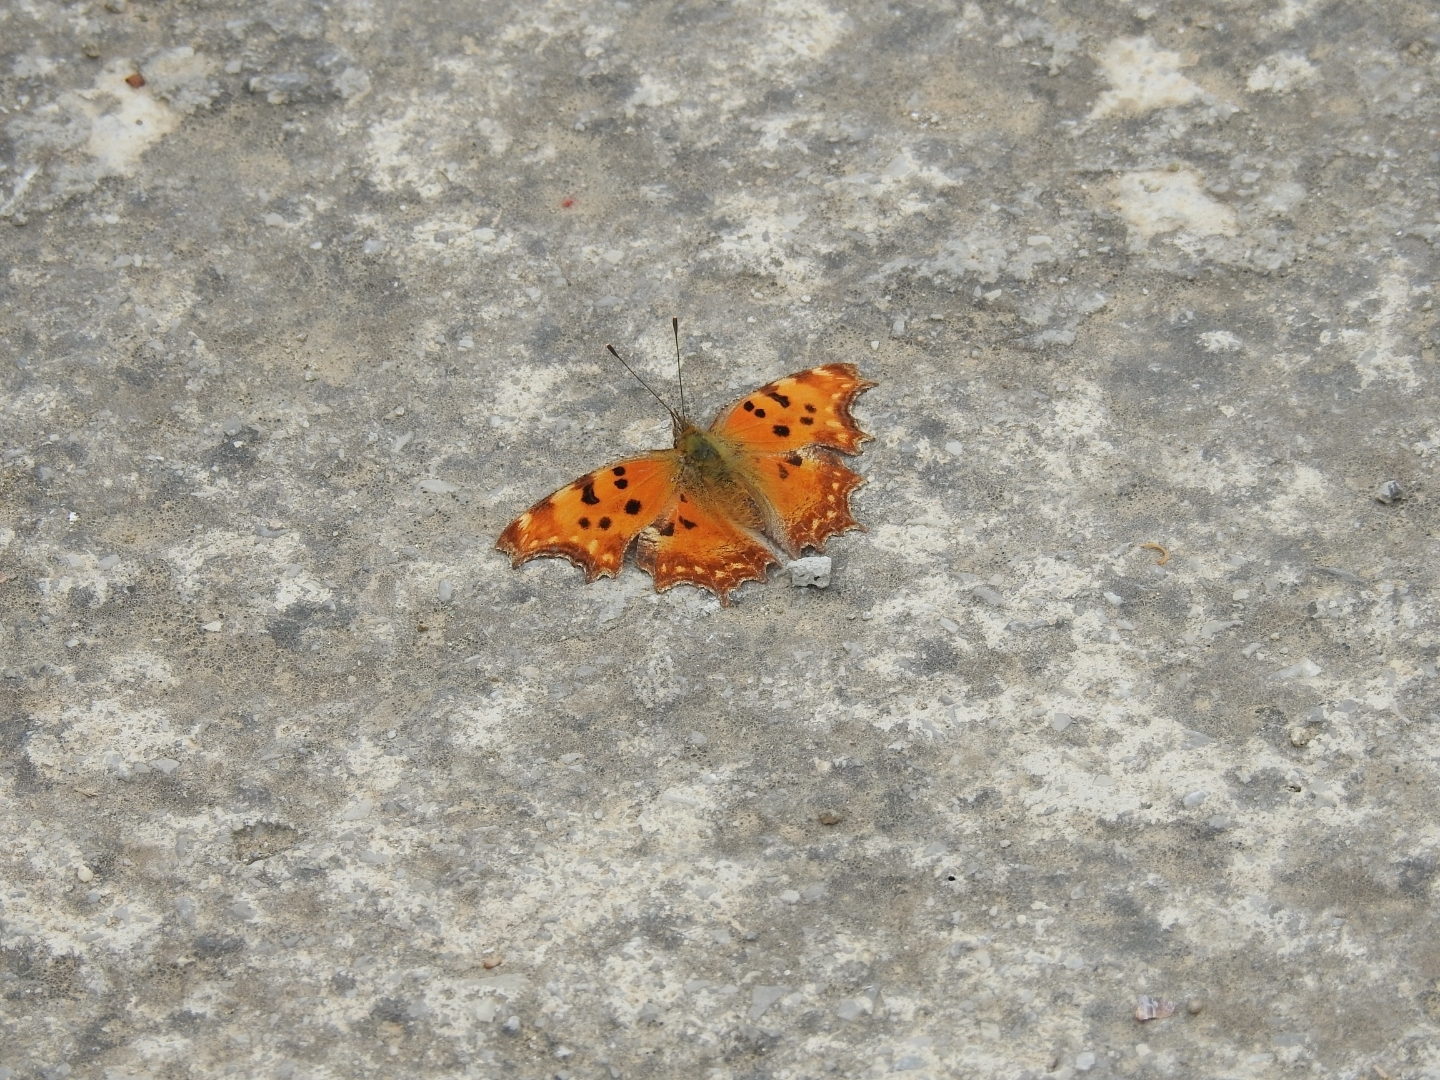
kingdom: Animalia
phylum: Arthropoda
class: Insecta
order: Lepidoptera
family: Nymphalidae
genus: Polygonia
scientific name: Polygonia egea
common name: Southern comma
